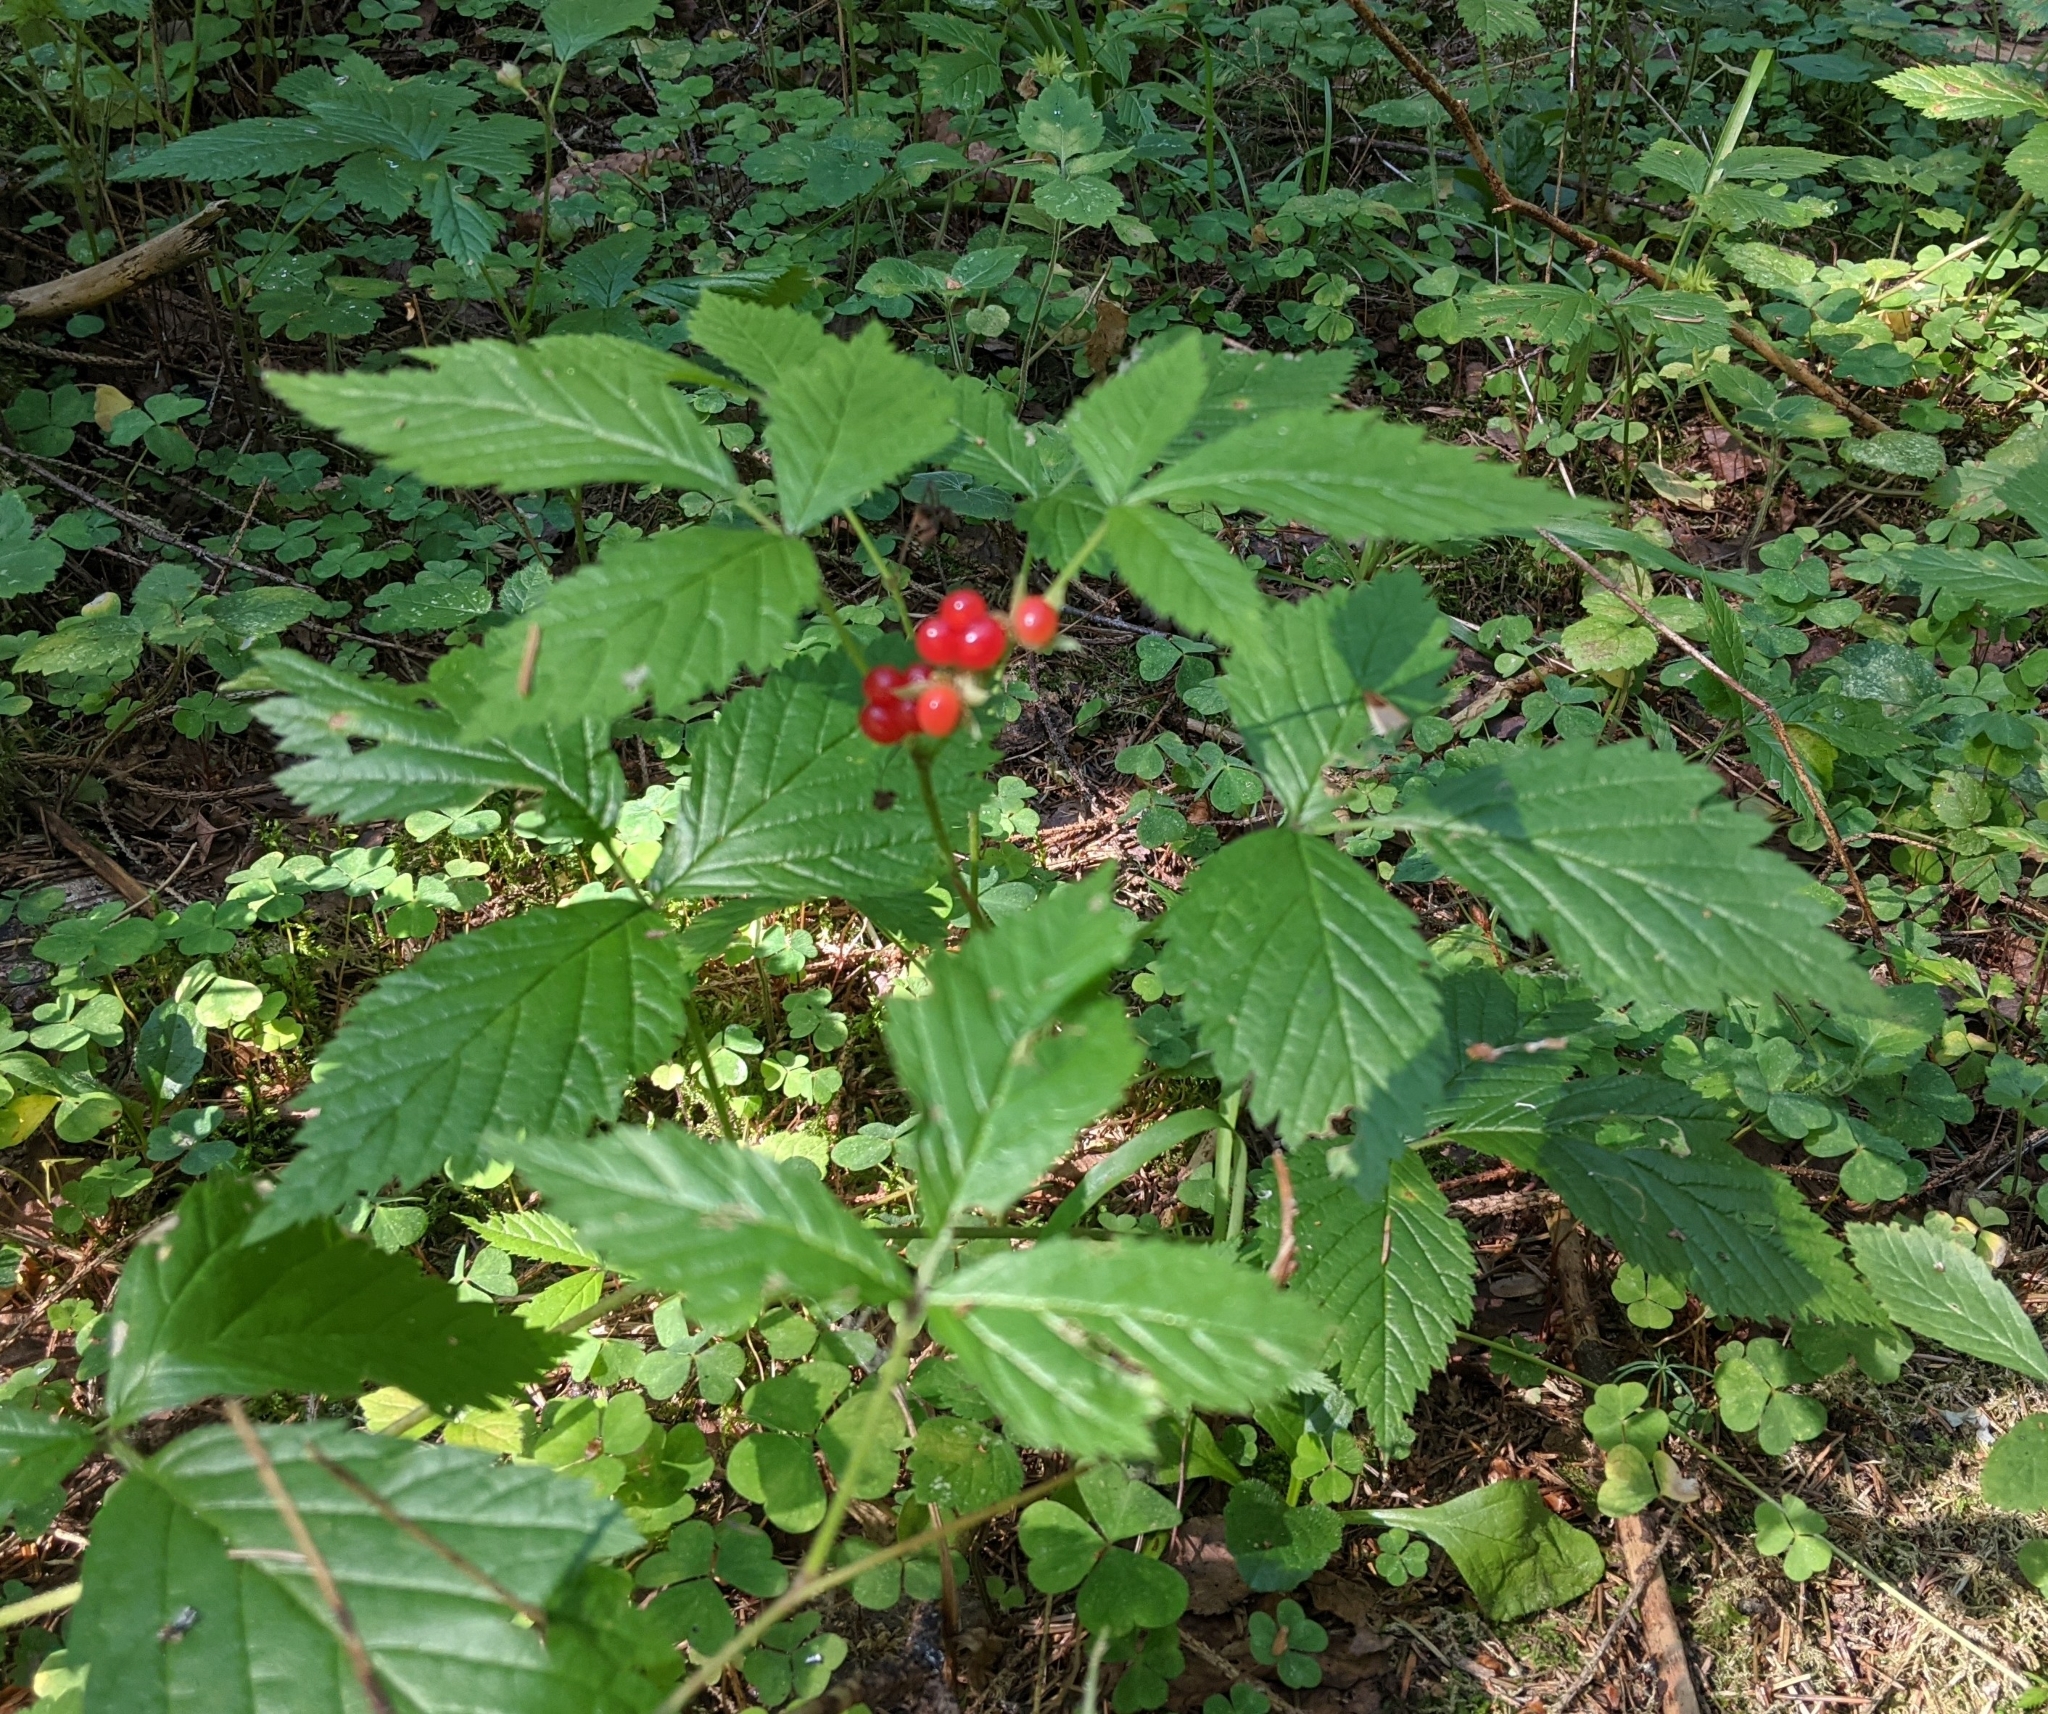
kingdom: Plantae
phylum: Tracheophyta
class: Magnoliopsida
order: Rosales
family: Rosaceae
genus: Rubus
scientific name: Rubus saxatilis
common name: Stone bramble
